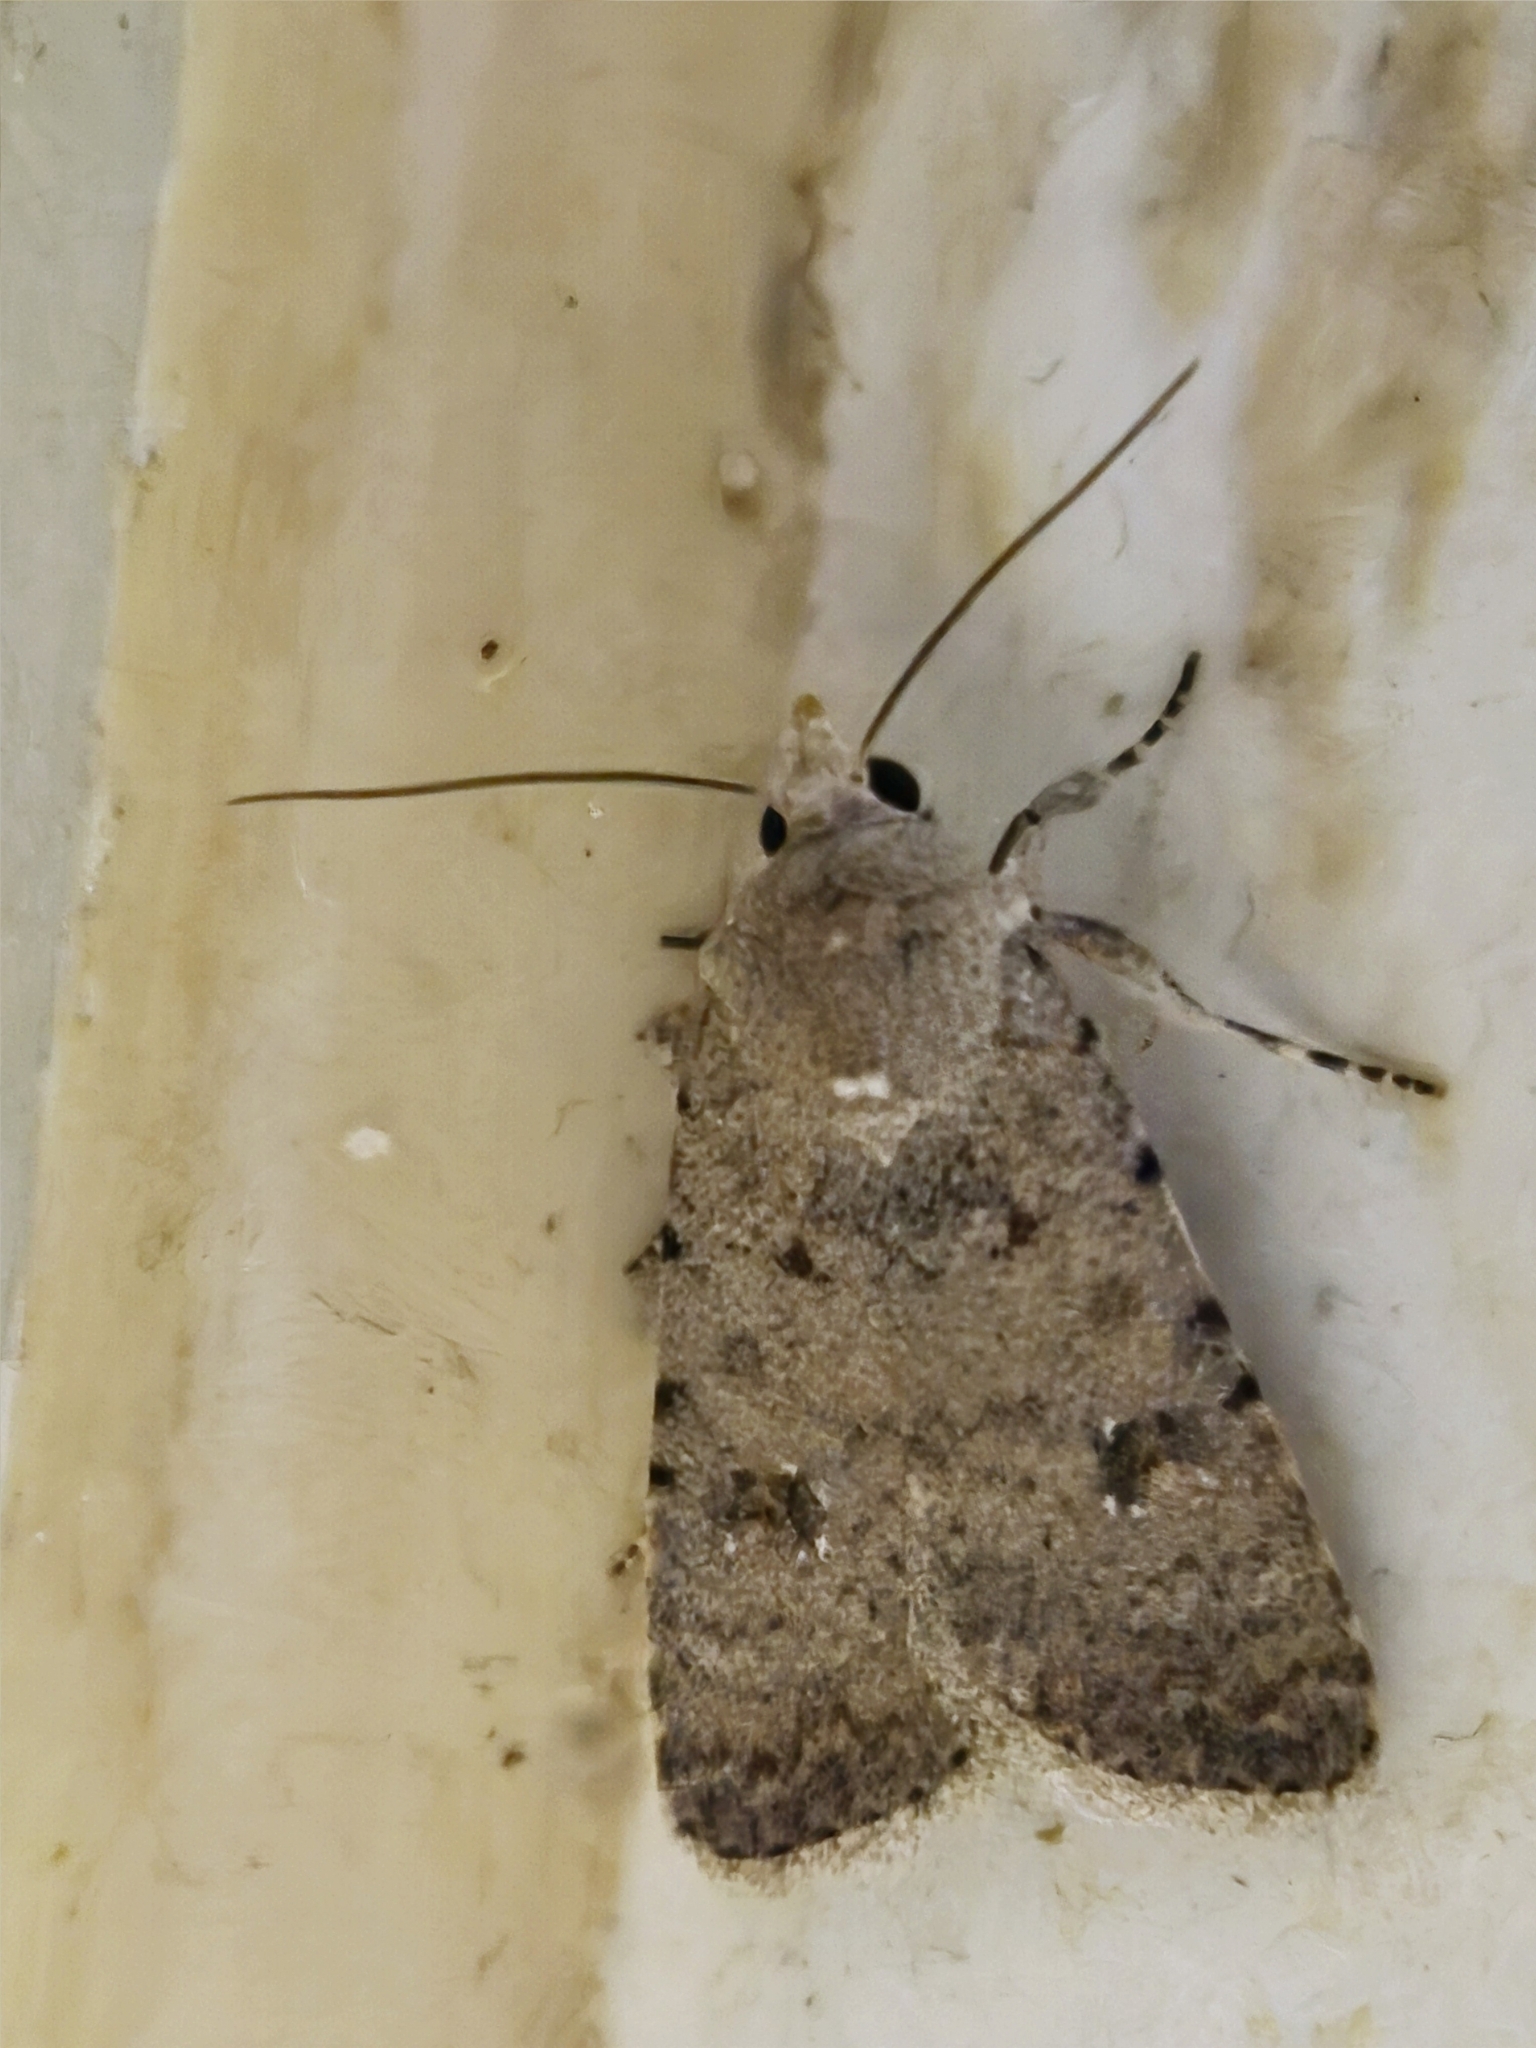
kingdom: Animalia
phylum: Arthropoda
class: Insecta
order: Lepidoptera
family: Noctuidae
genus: Caradrina
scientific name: Caradrina clavipalpis
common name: Pale mottled willow
